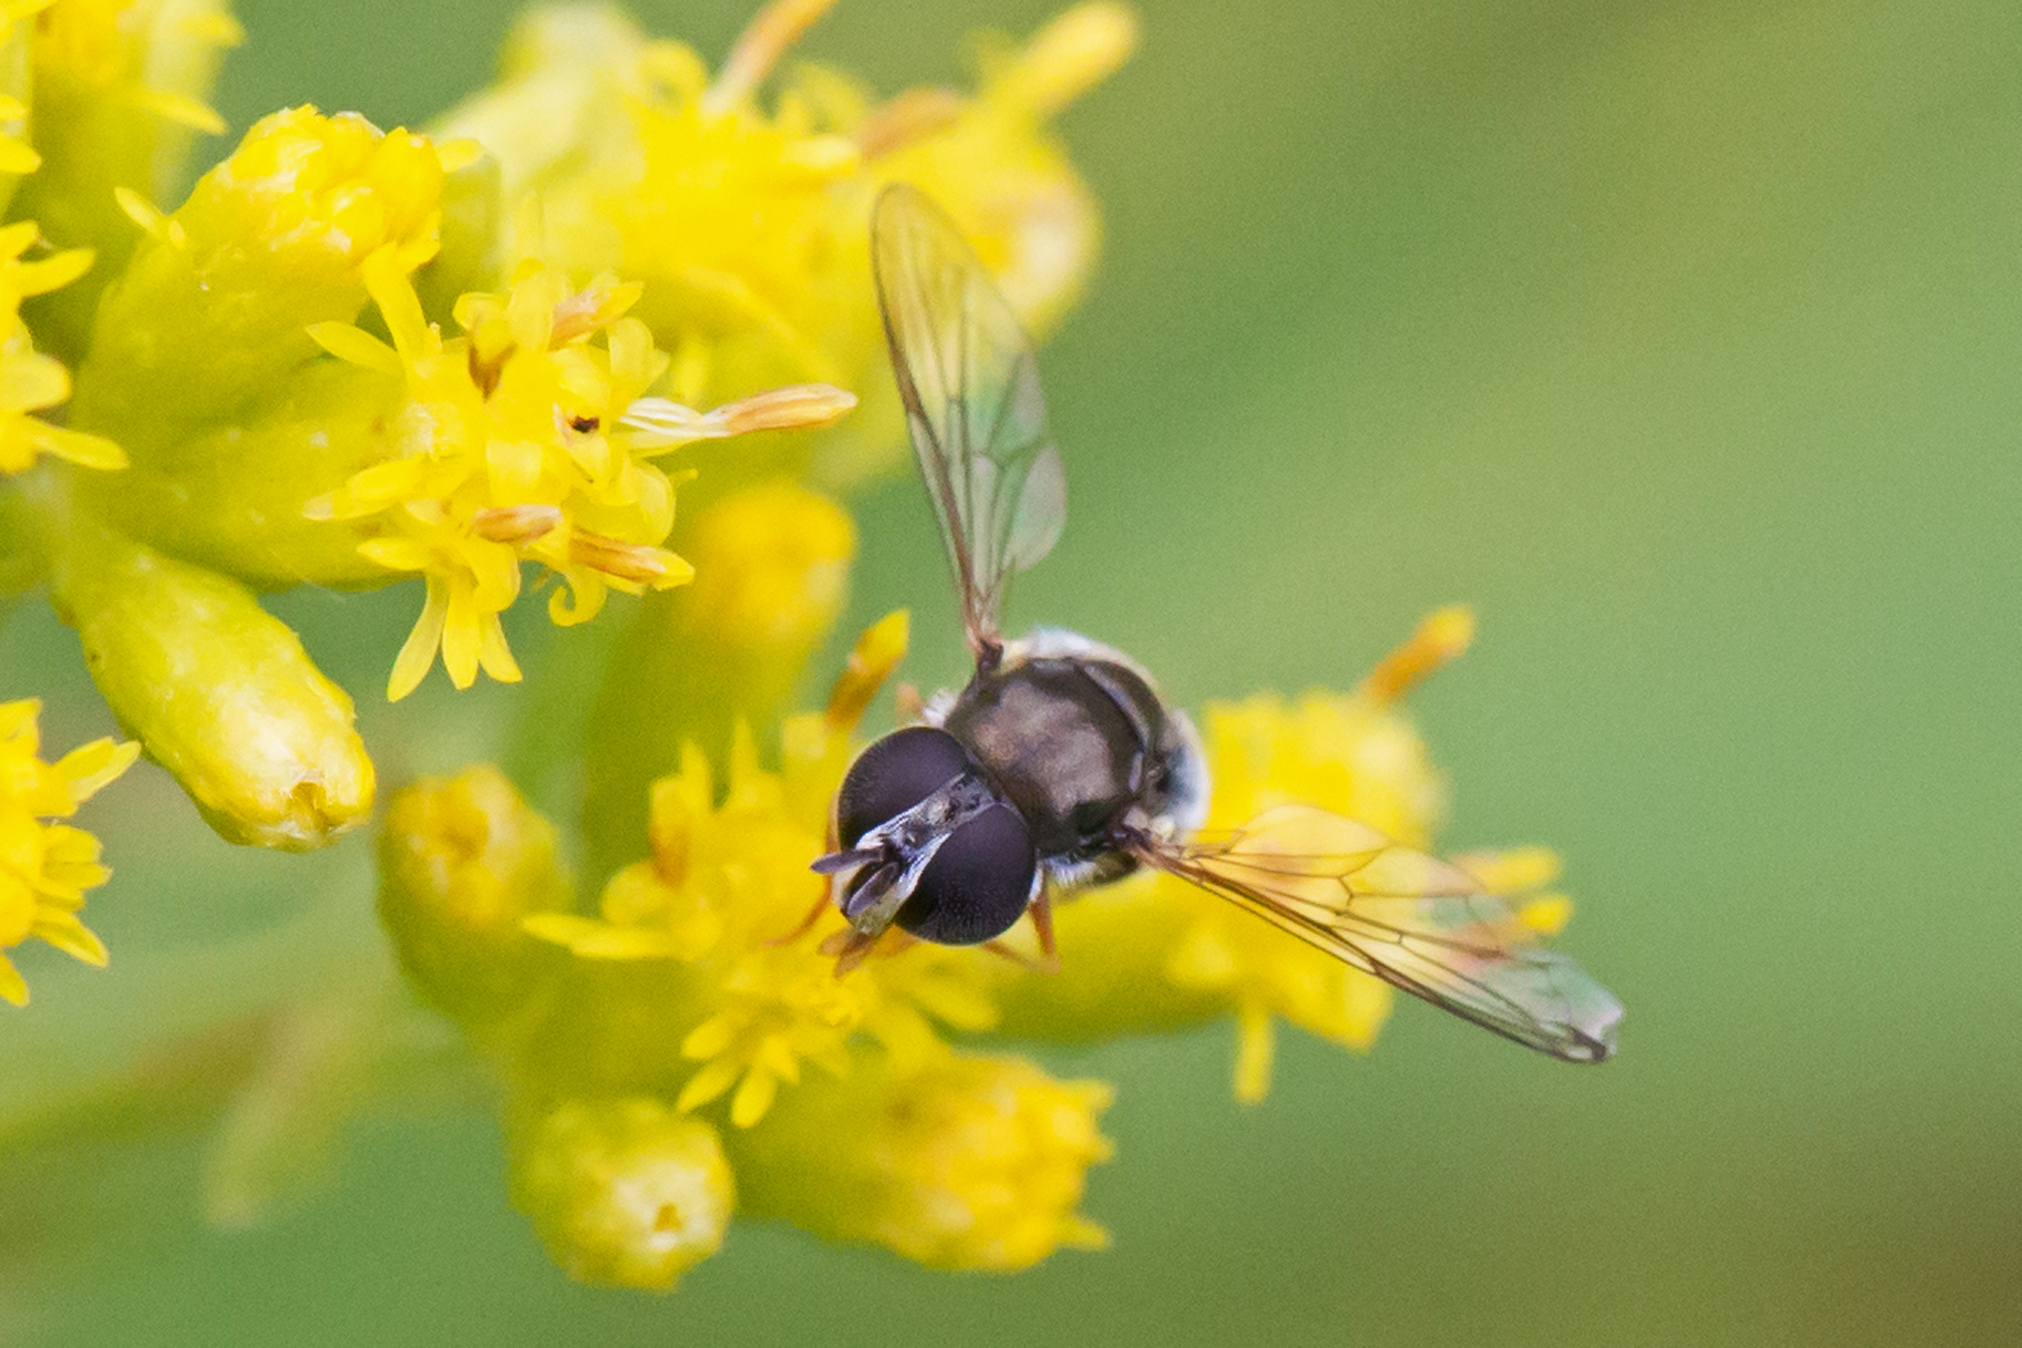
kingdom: Animalia
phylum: Arthropoda
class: Insecta
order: Diptera
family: Syrphidae
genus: Paragus
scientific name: Paragus haemorrhous
